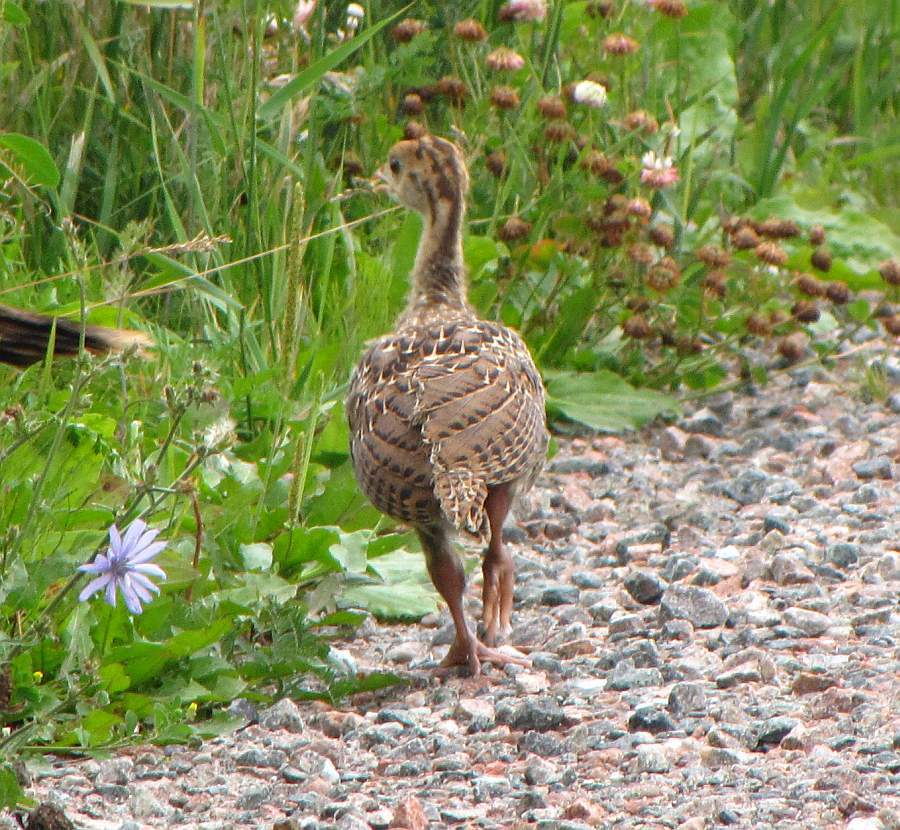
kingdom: Animalia
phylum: Chordata
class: Aves
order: Galliformes
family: Phasianidae
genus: Meleagris
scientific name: Meleagris gallopavo
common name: Wild turkey
